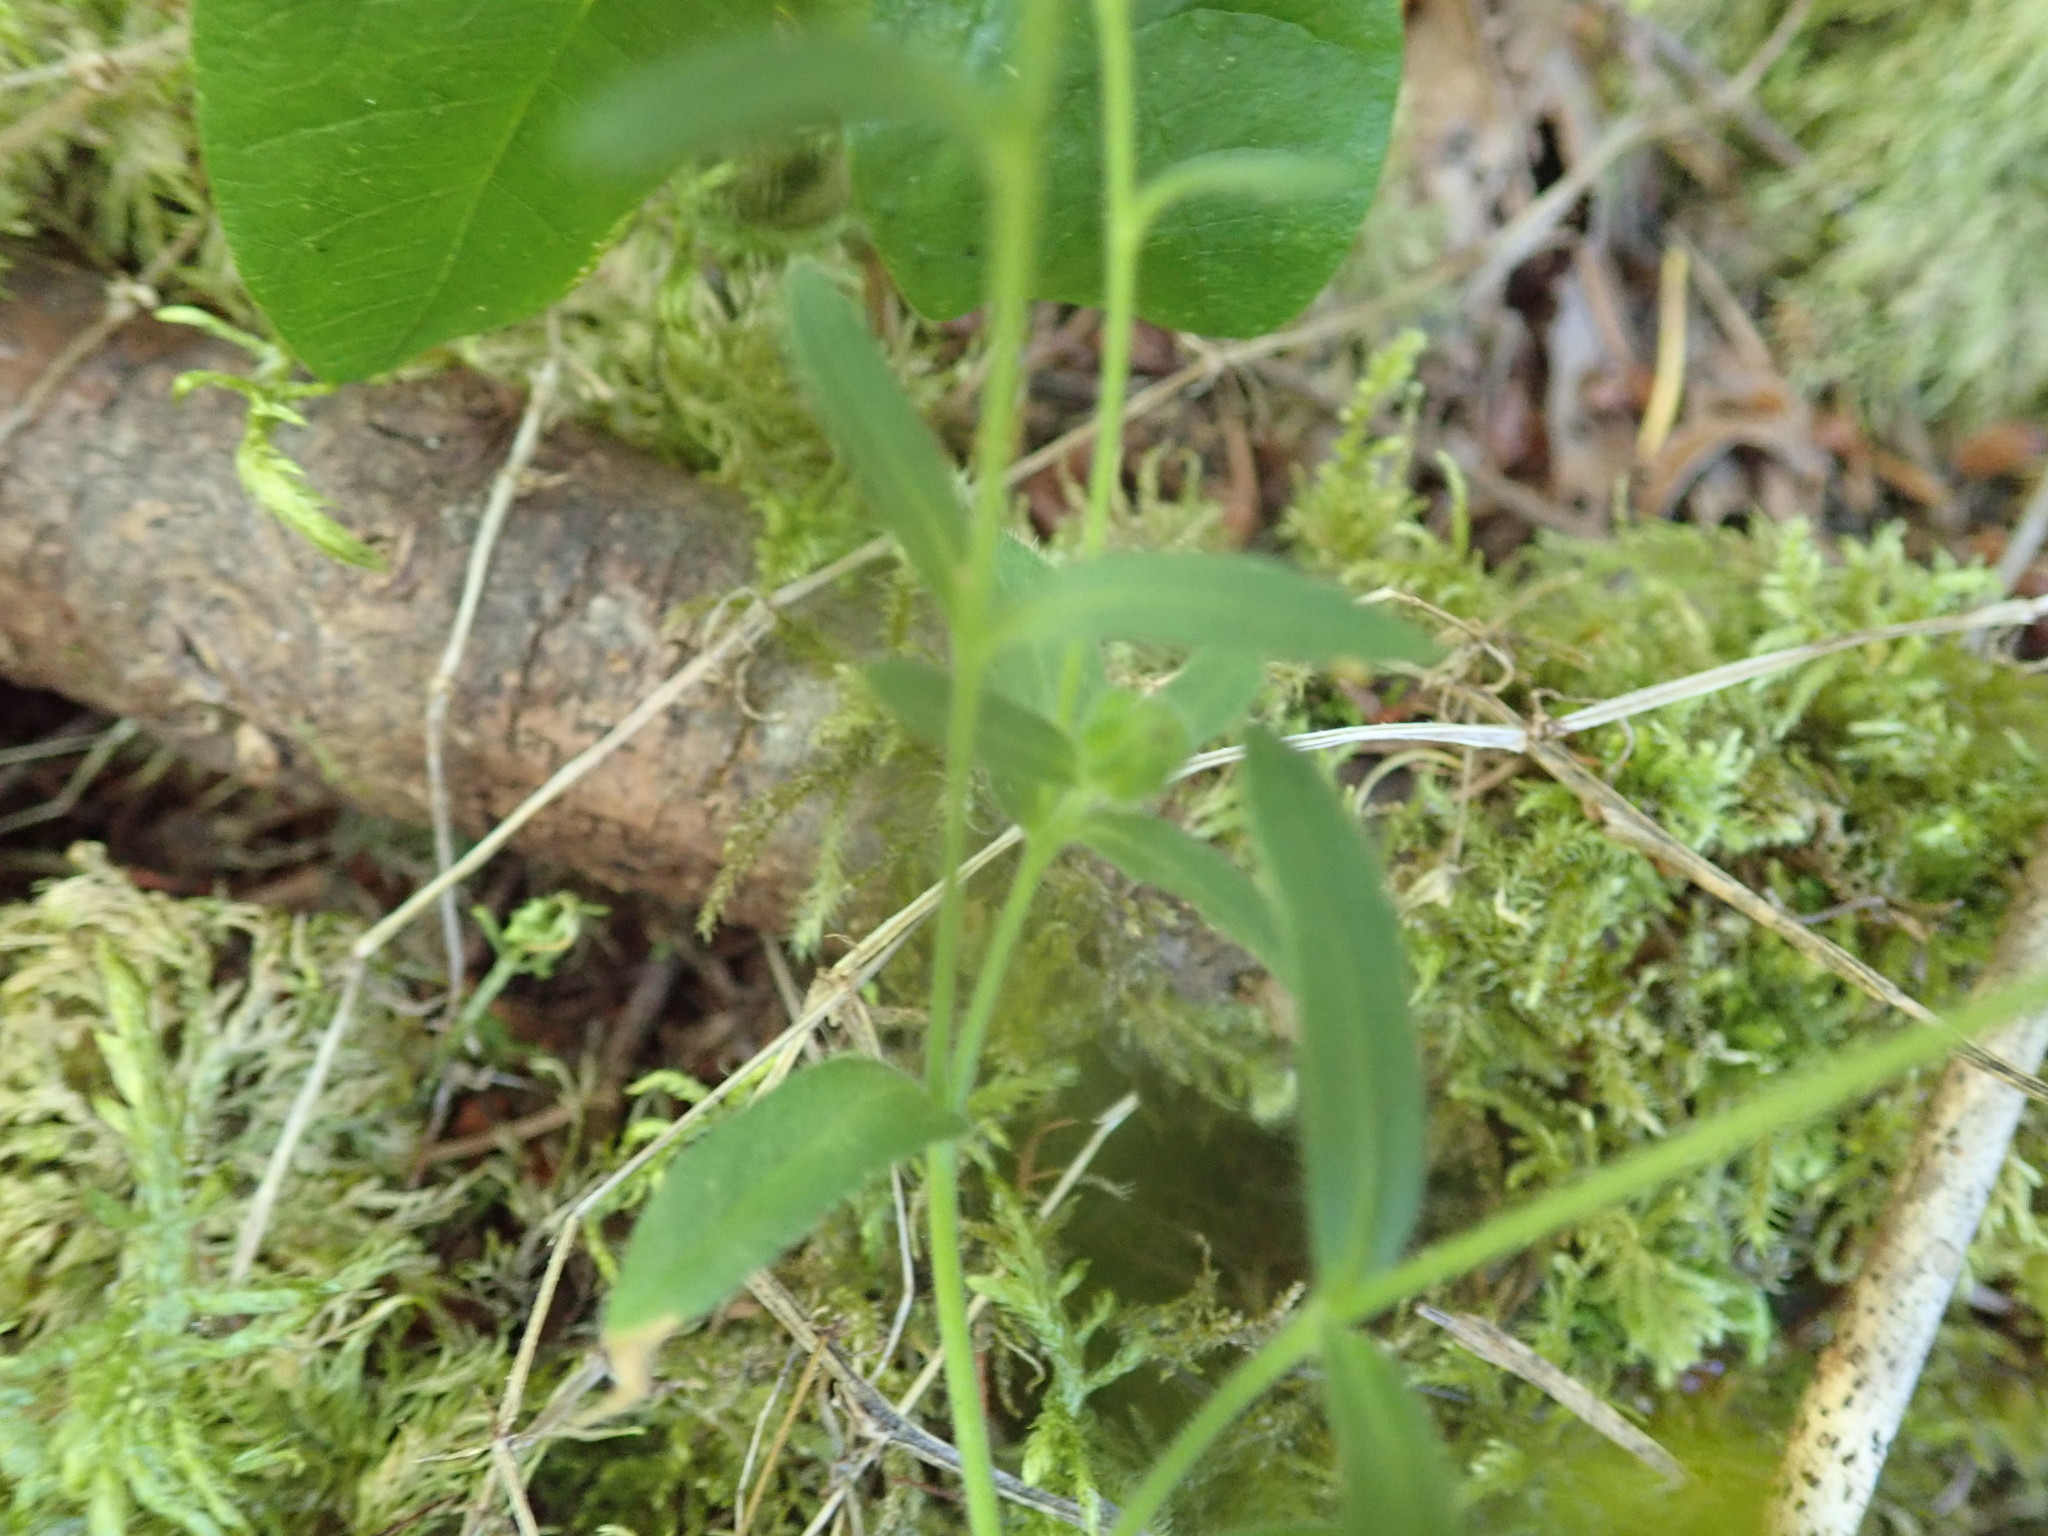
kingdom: Plantae
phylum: Tracheophyta
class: Magnoliopsida
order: Asterales
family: Asteraceae
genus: Anisocarpus
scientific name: Anisocarpus madioides
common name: Woodland madia
